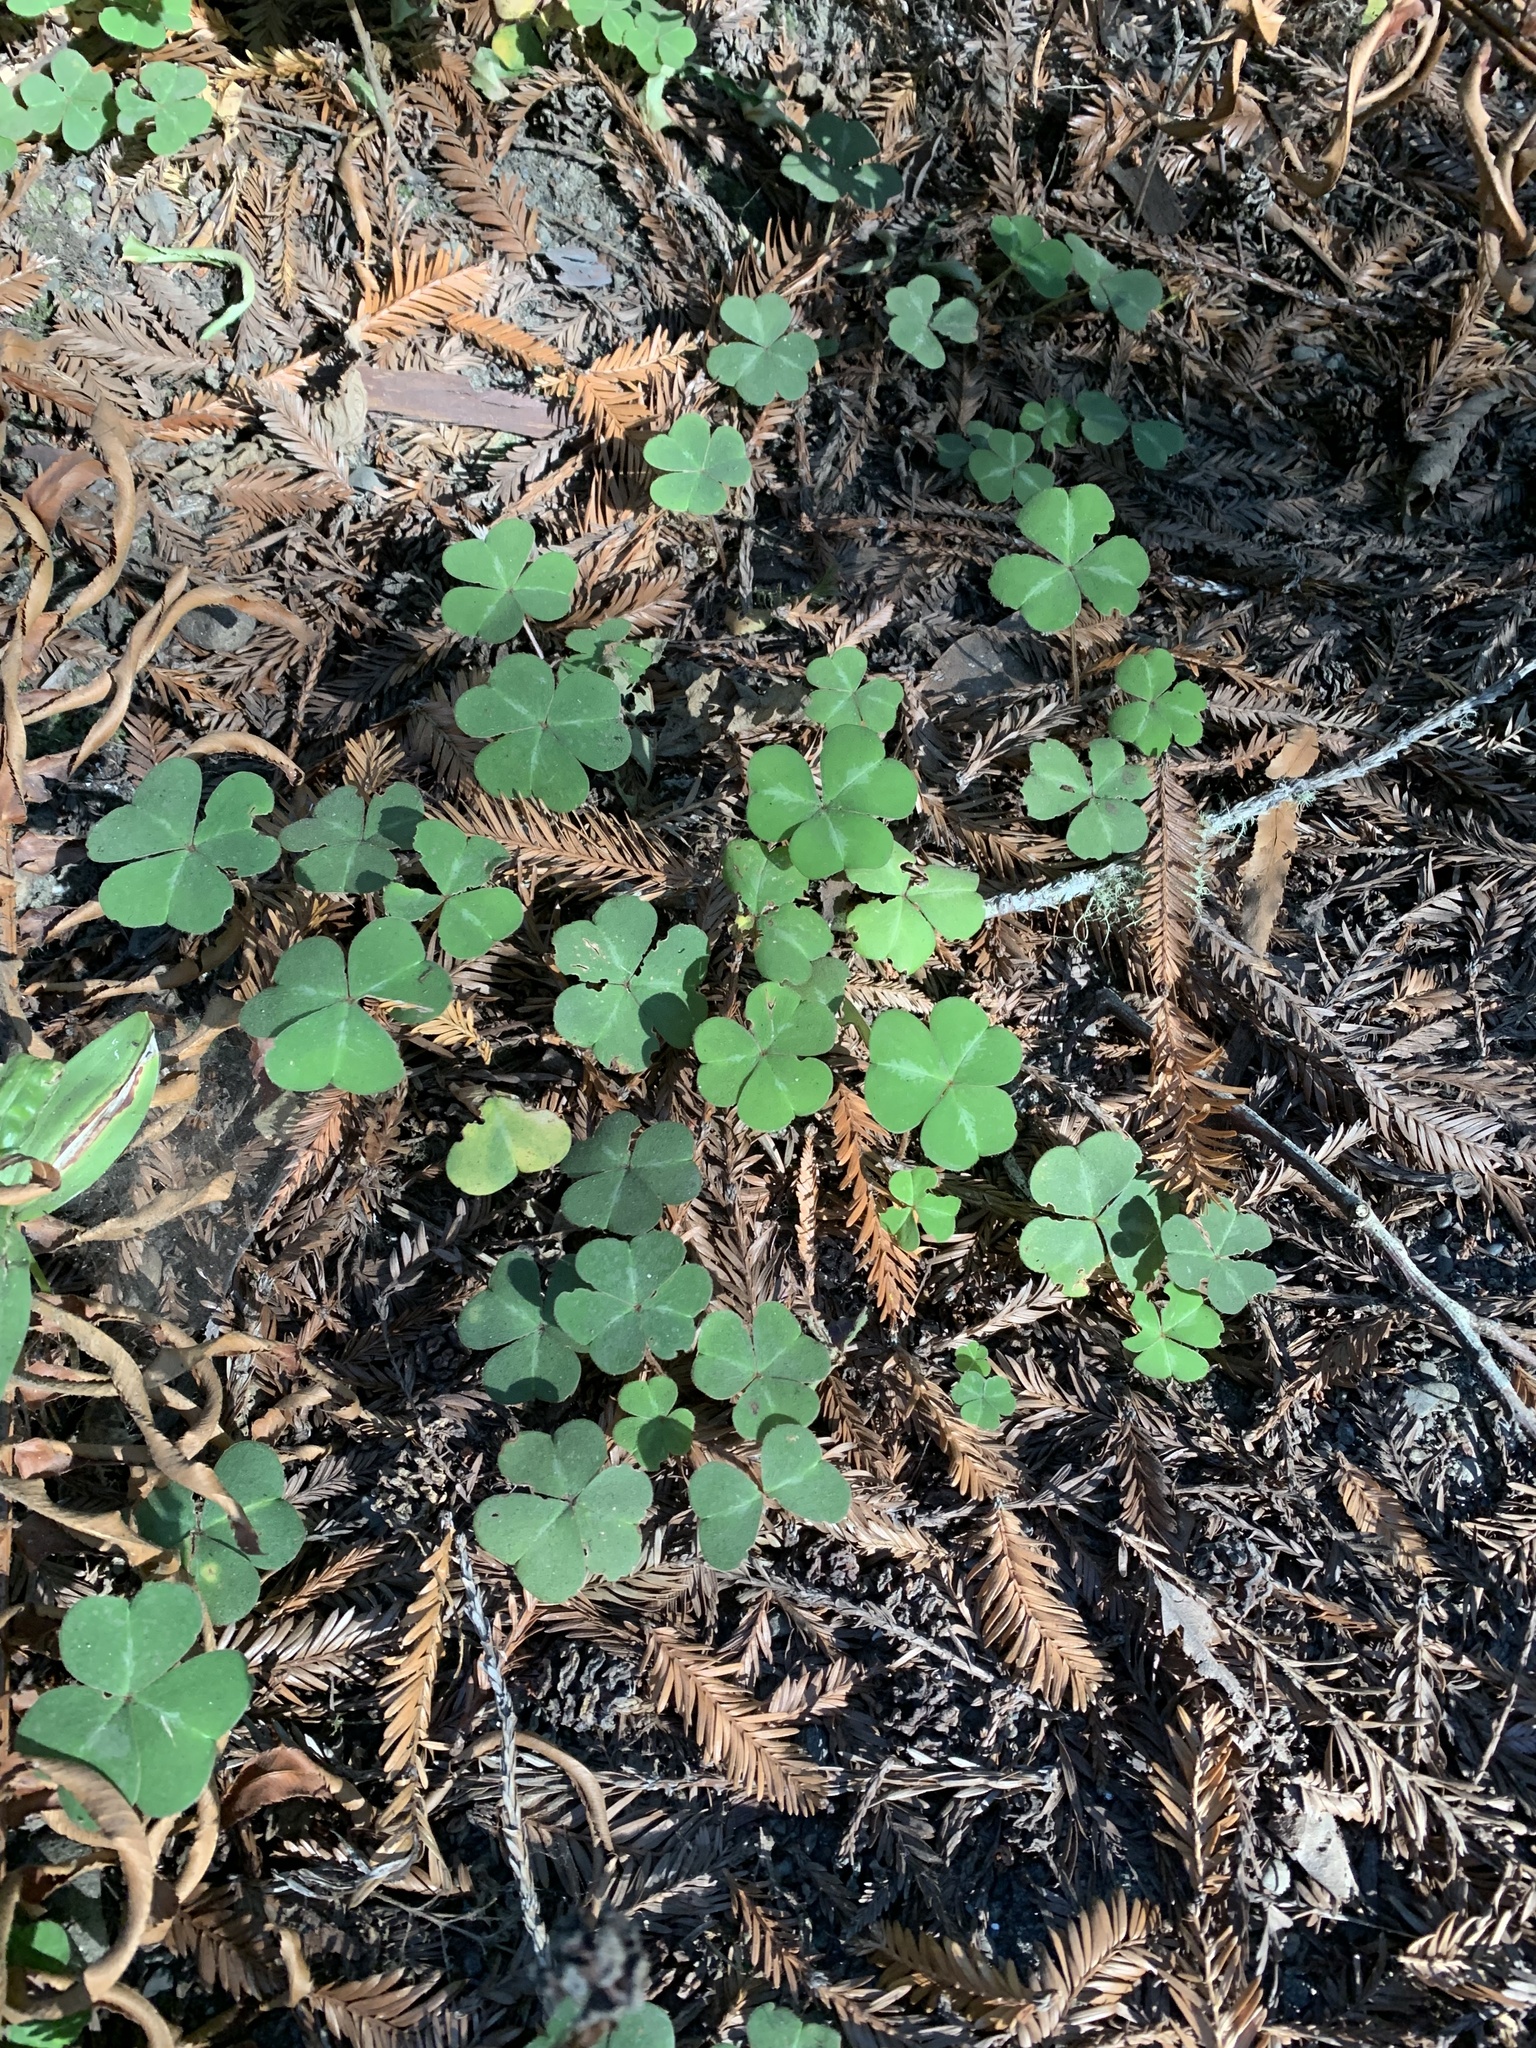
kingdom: Plantae
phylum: Tracheophyta
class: Magnoliopsida
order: Oxalidales
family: Oxalidaceae
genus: Oxalis
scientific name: Oxalis oregana
